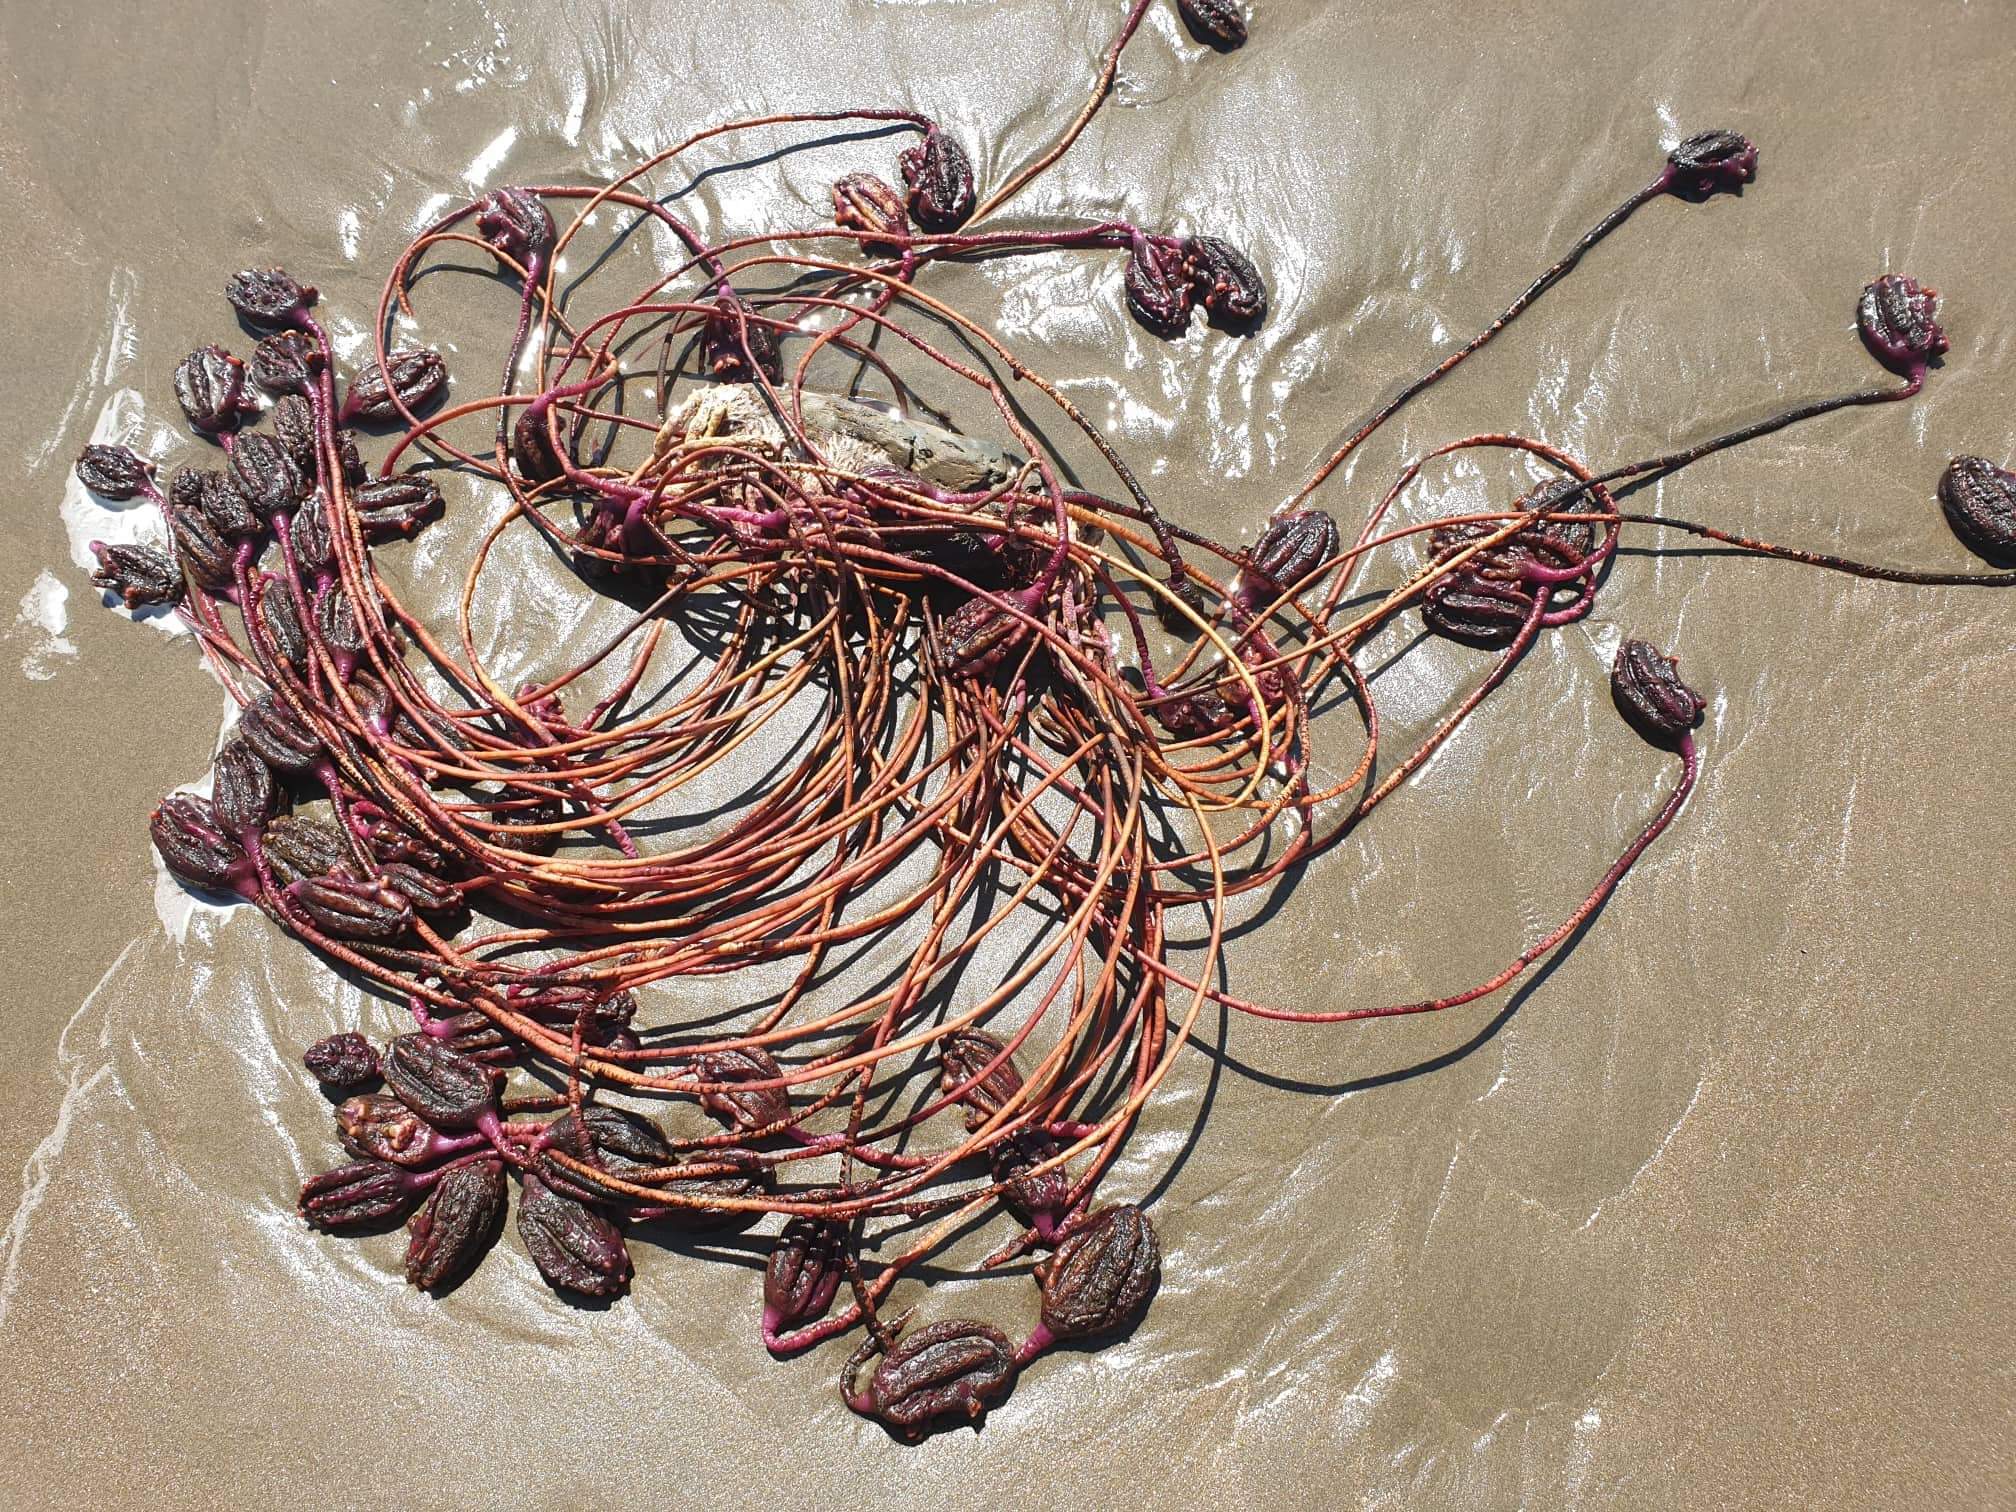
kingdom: Animalia
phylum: Chordata
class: Ascidiacea
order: Stolidobranchia
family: Pyuridae
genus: Pyura
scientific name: Pyura pachydermatina
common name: Sea tulip
